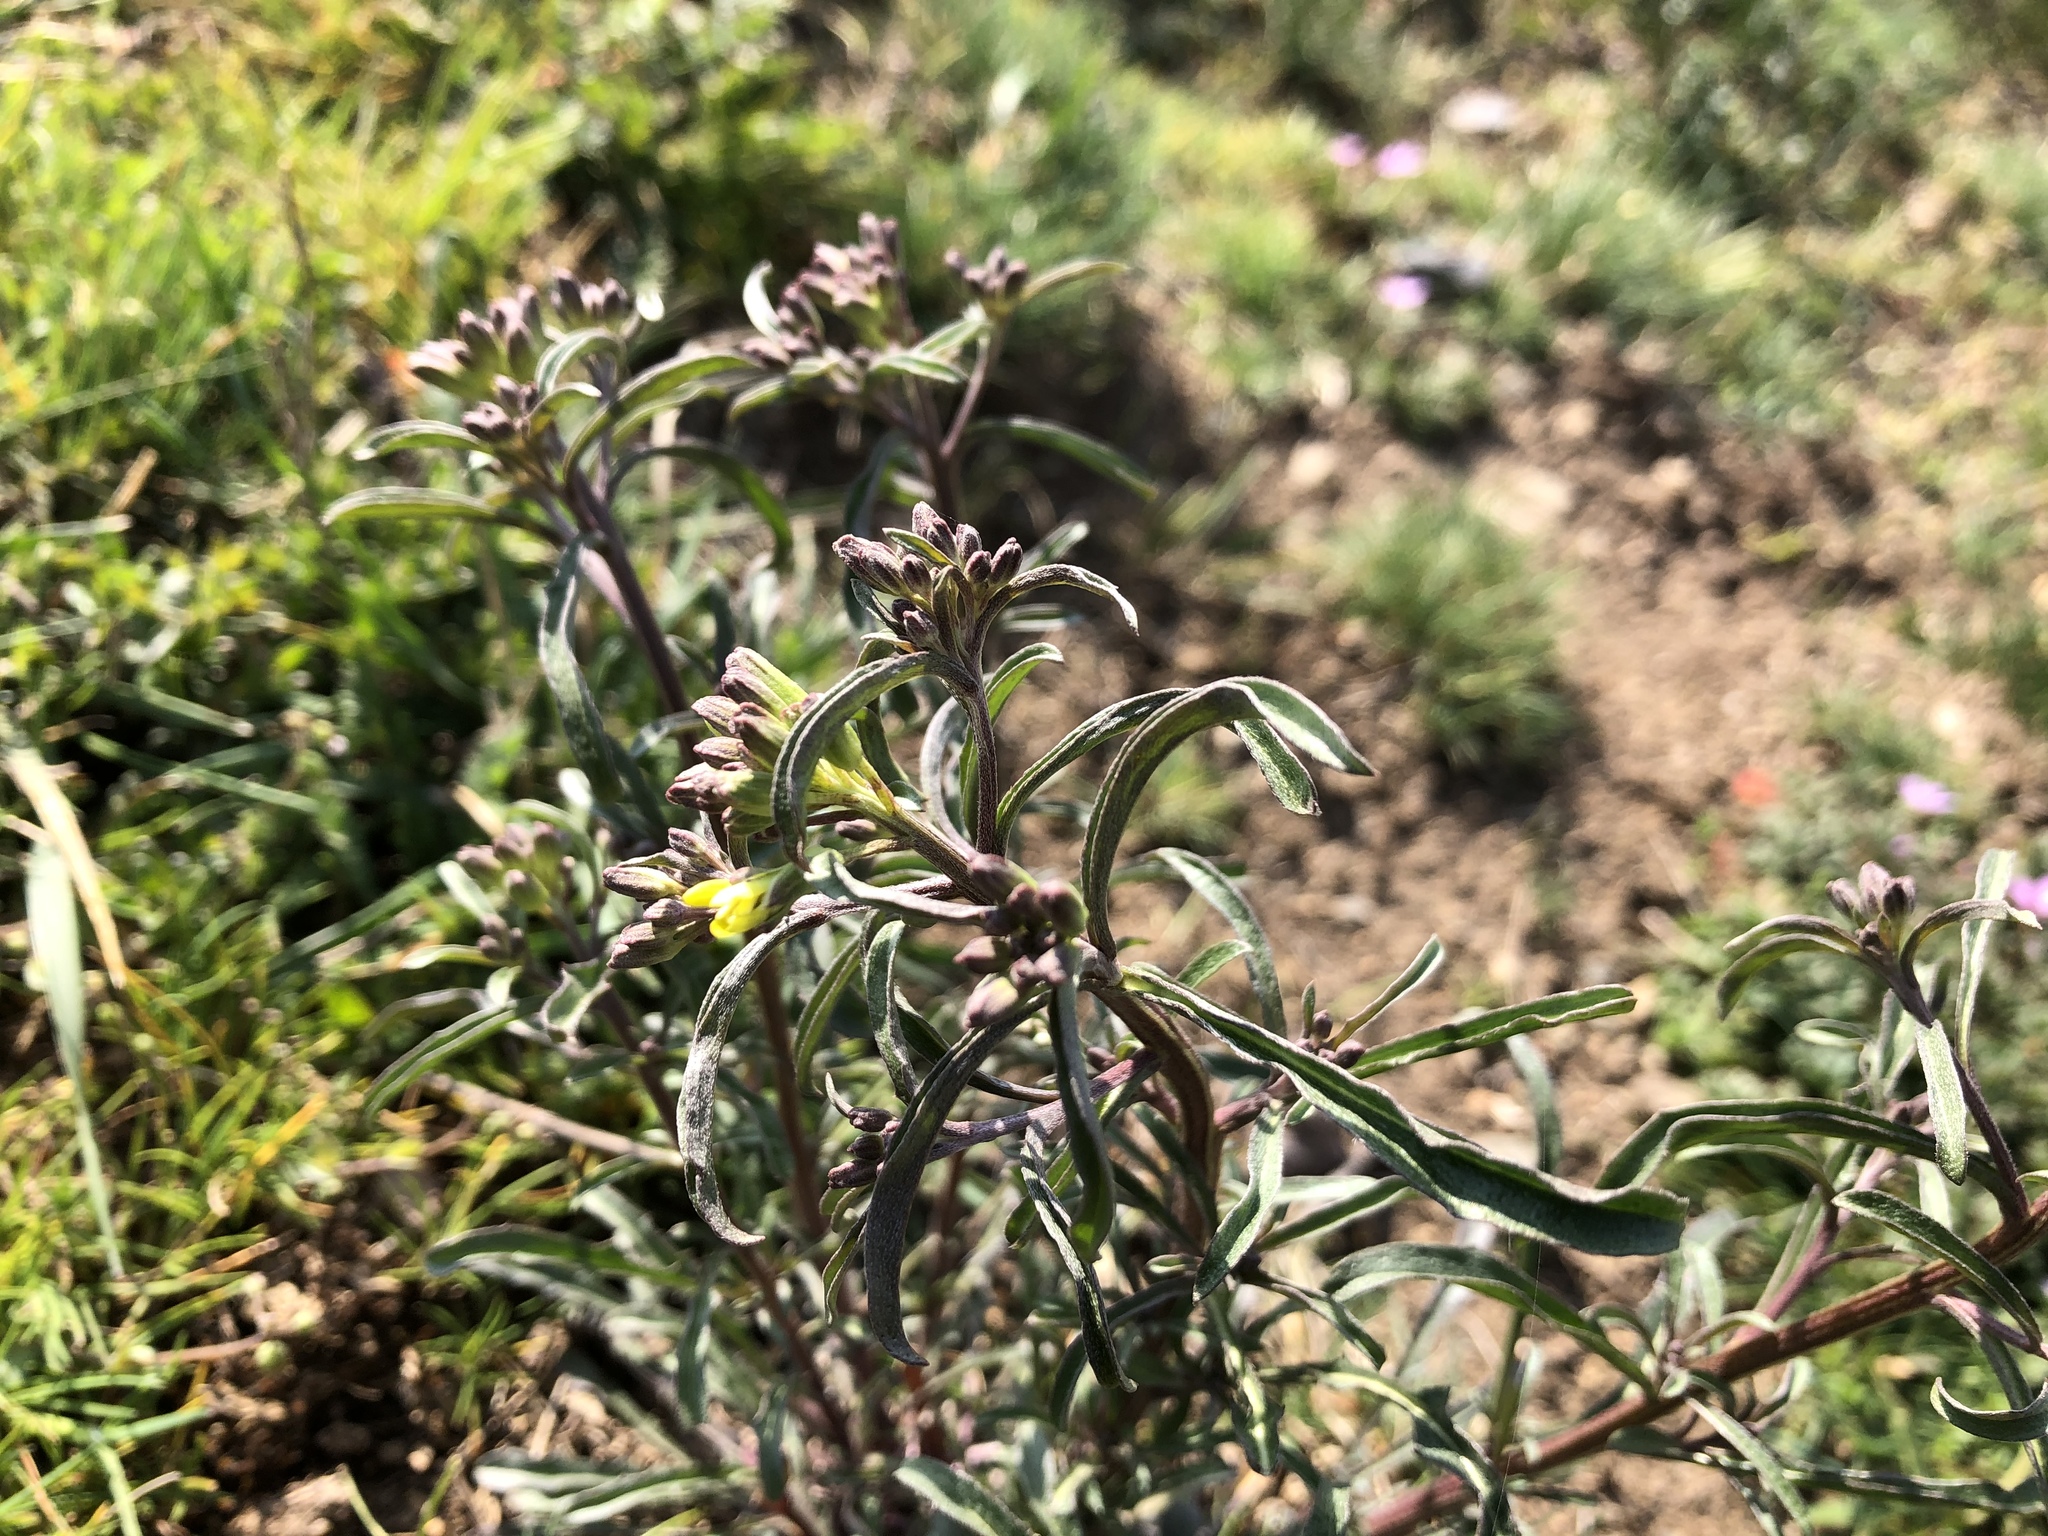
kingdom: Plantae
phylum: Tracheophyta
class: Magnoliopsida
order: Brassicales
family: Brassicaceae
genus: Erysimum
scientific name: Erysimum crepidifolium
